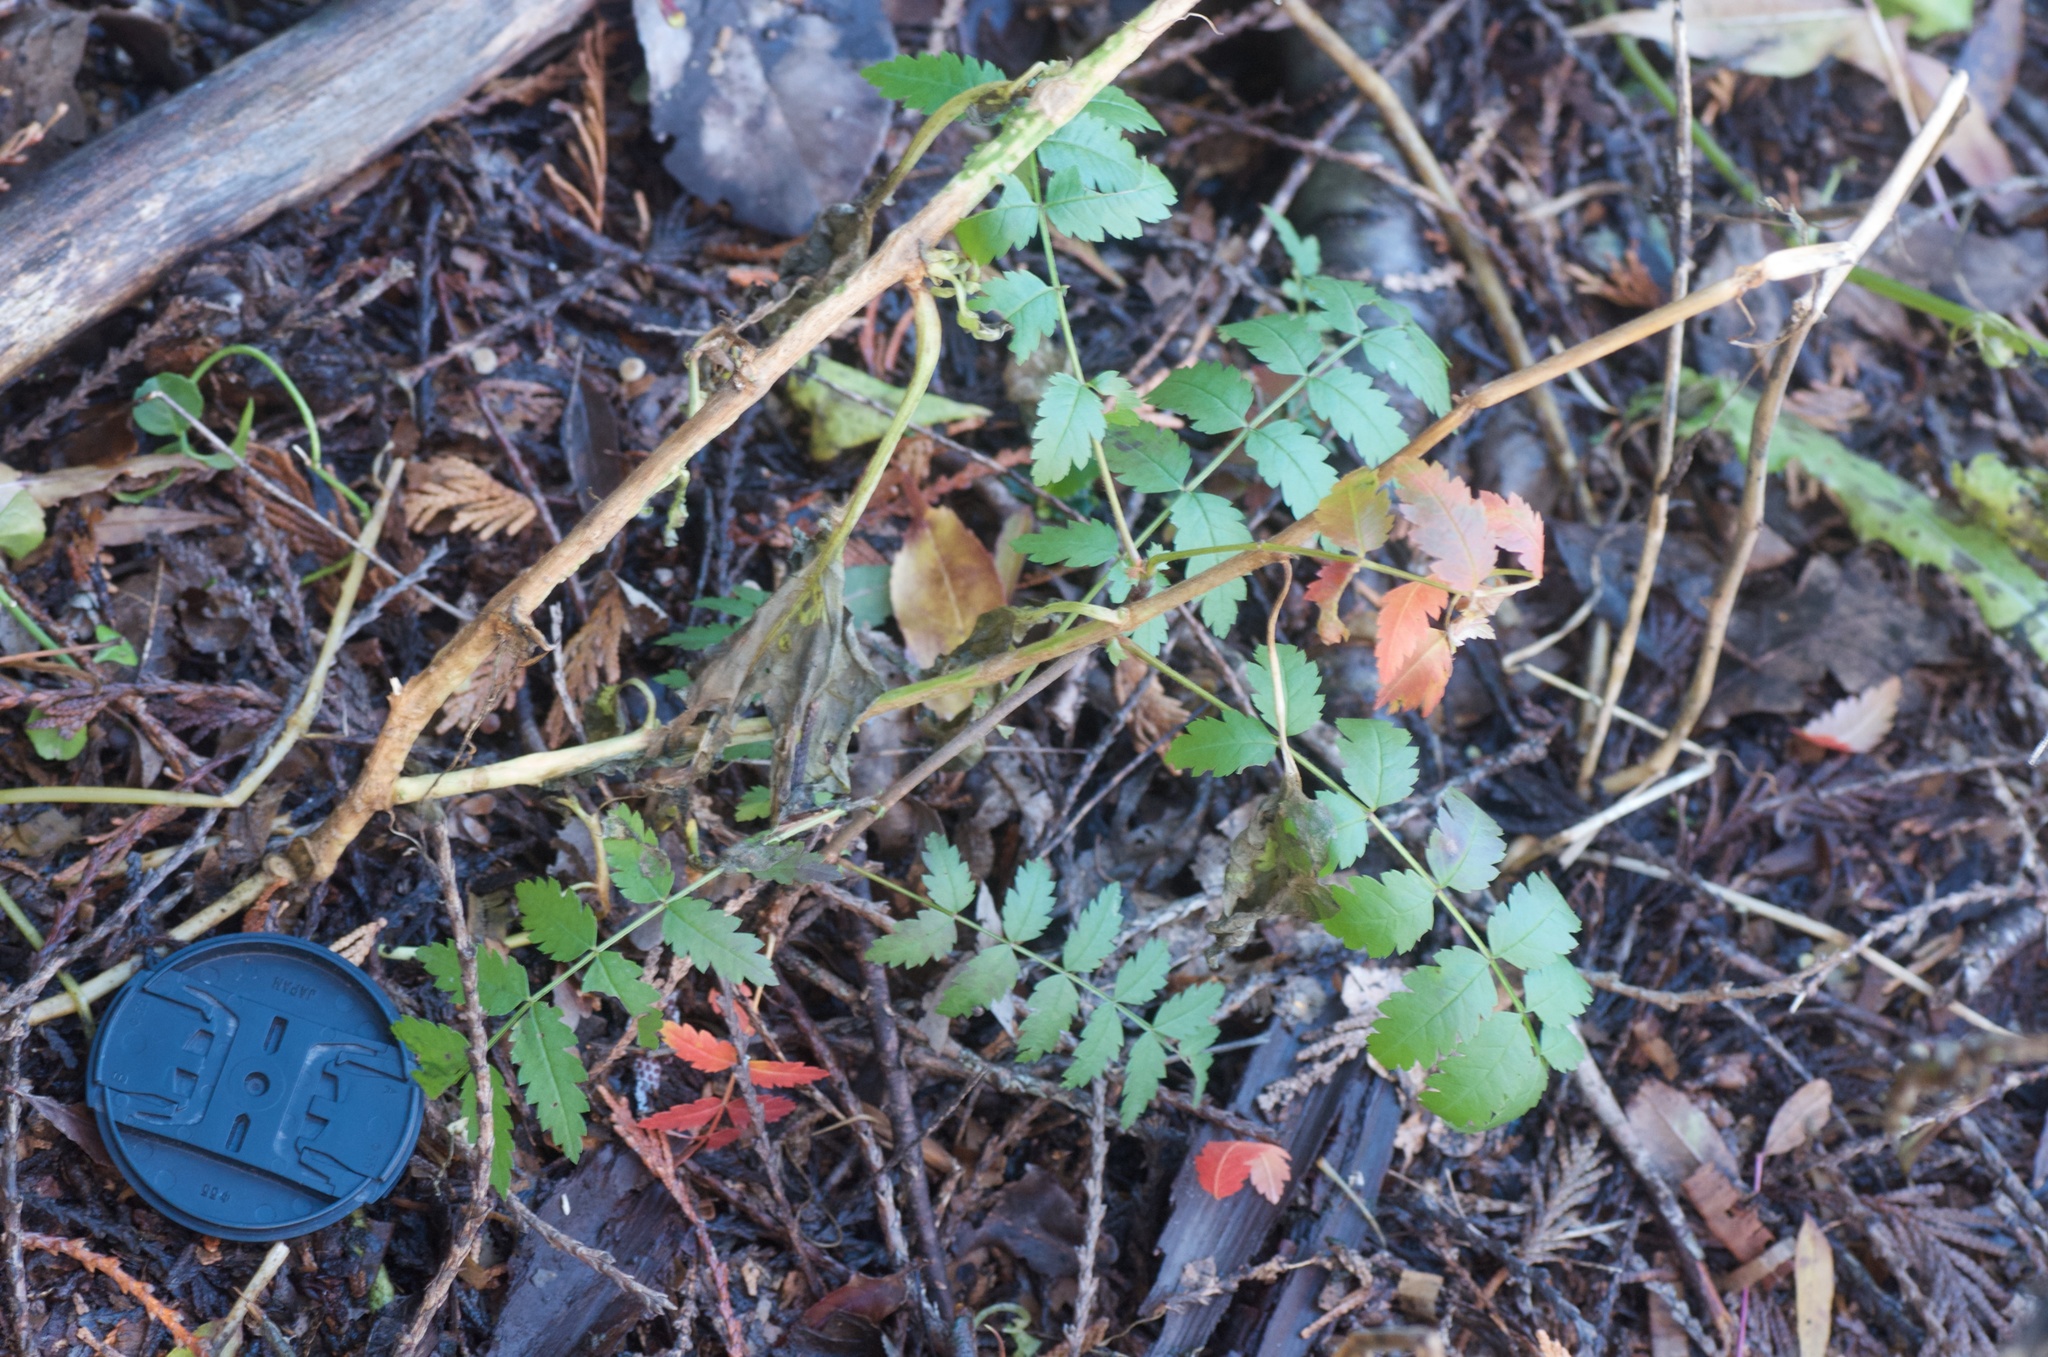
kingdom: Plantae
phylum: Tracheophyta
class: Magnoliopsida
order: Rosales
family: Rosaceae
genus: Sorbus
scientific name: Sorbus aucuparia
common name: Rowan
